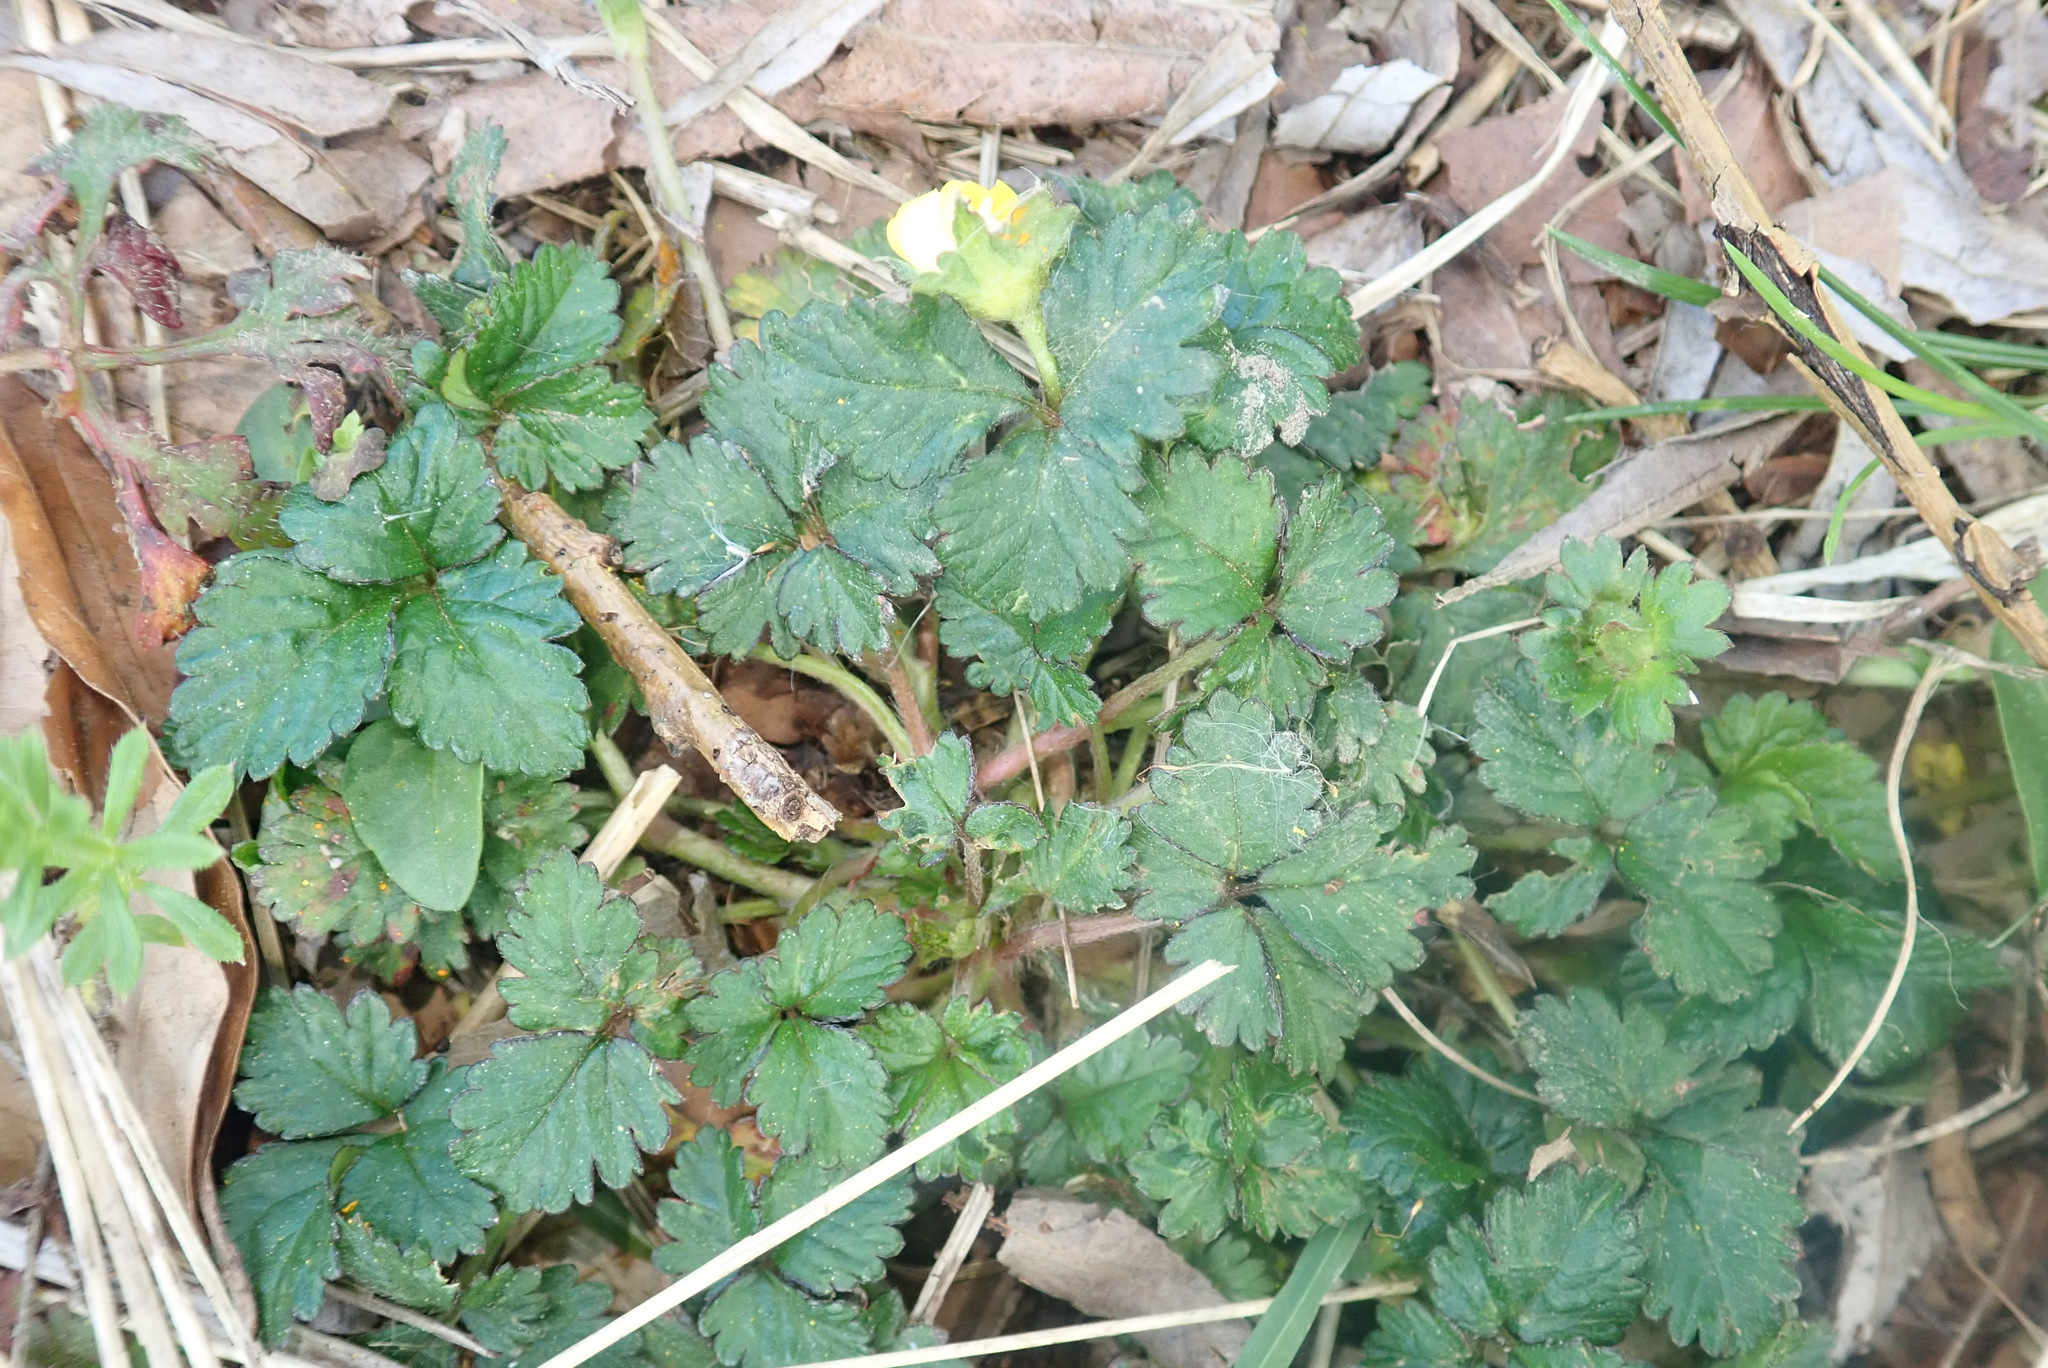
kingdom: Plantae
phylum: Tracheophyta
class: Magnoliopsida
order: Rosales
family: Rosaceae
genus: Potentilla
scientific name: Potentilla indica
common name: Yellow-flowered strawberry
